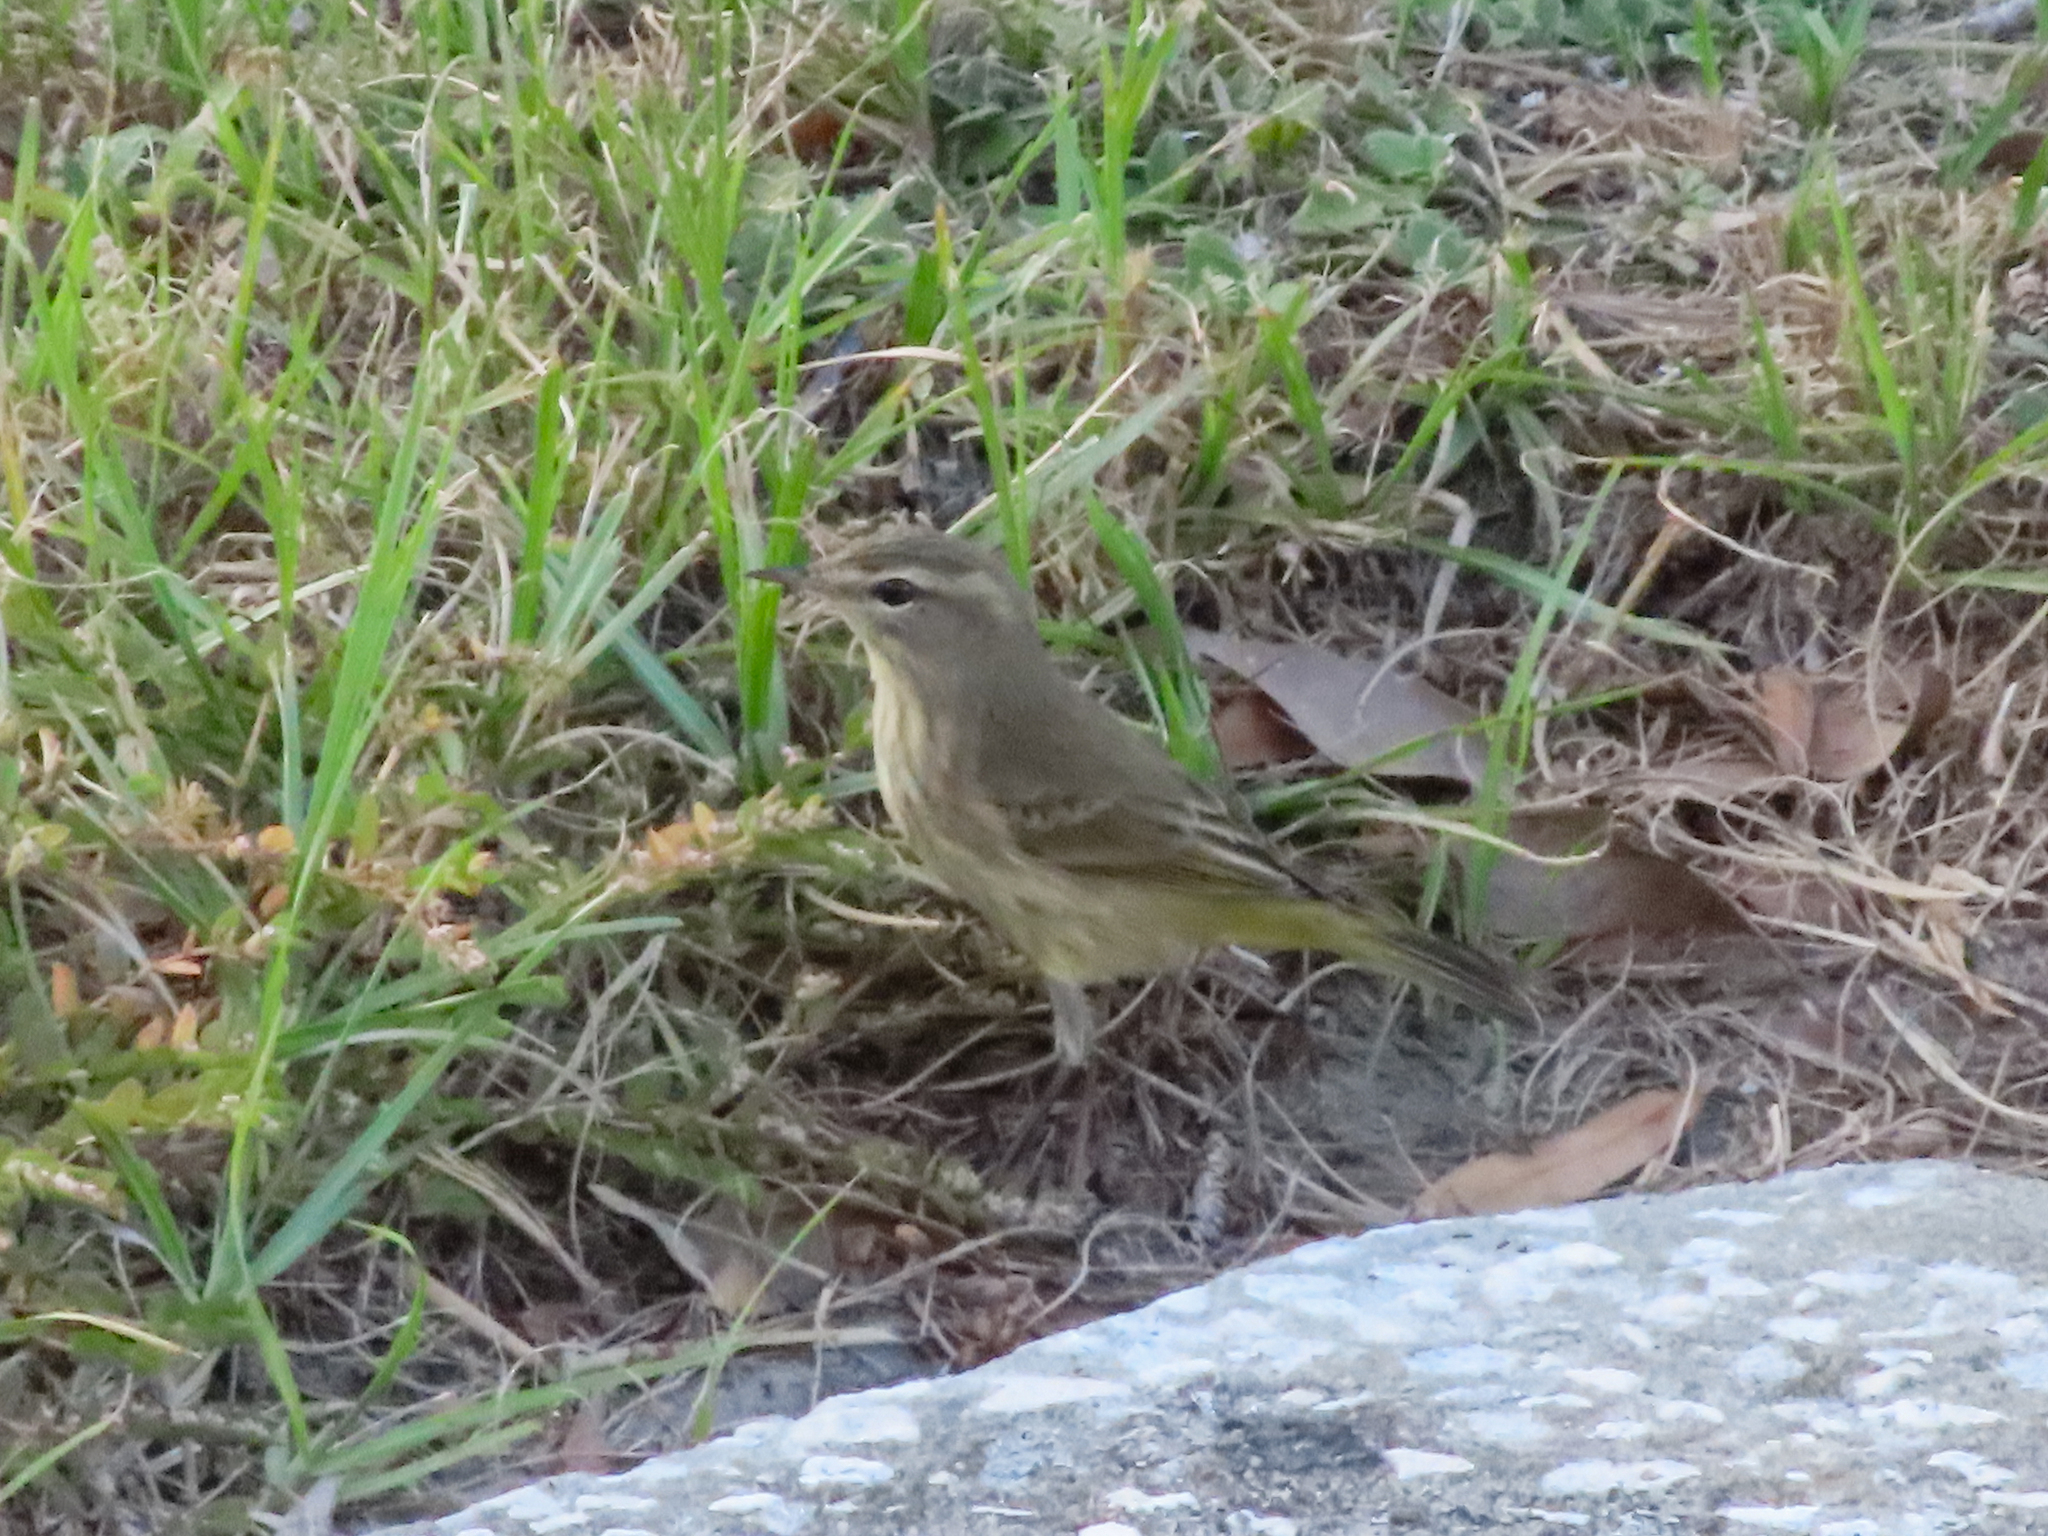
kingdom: Animalia
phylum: Chordata
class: Aves
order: Passeriformes
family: Parulidae
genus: Setophaga
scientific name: Setophaga palmarum
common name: Palm warbler
